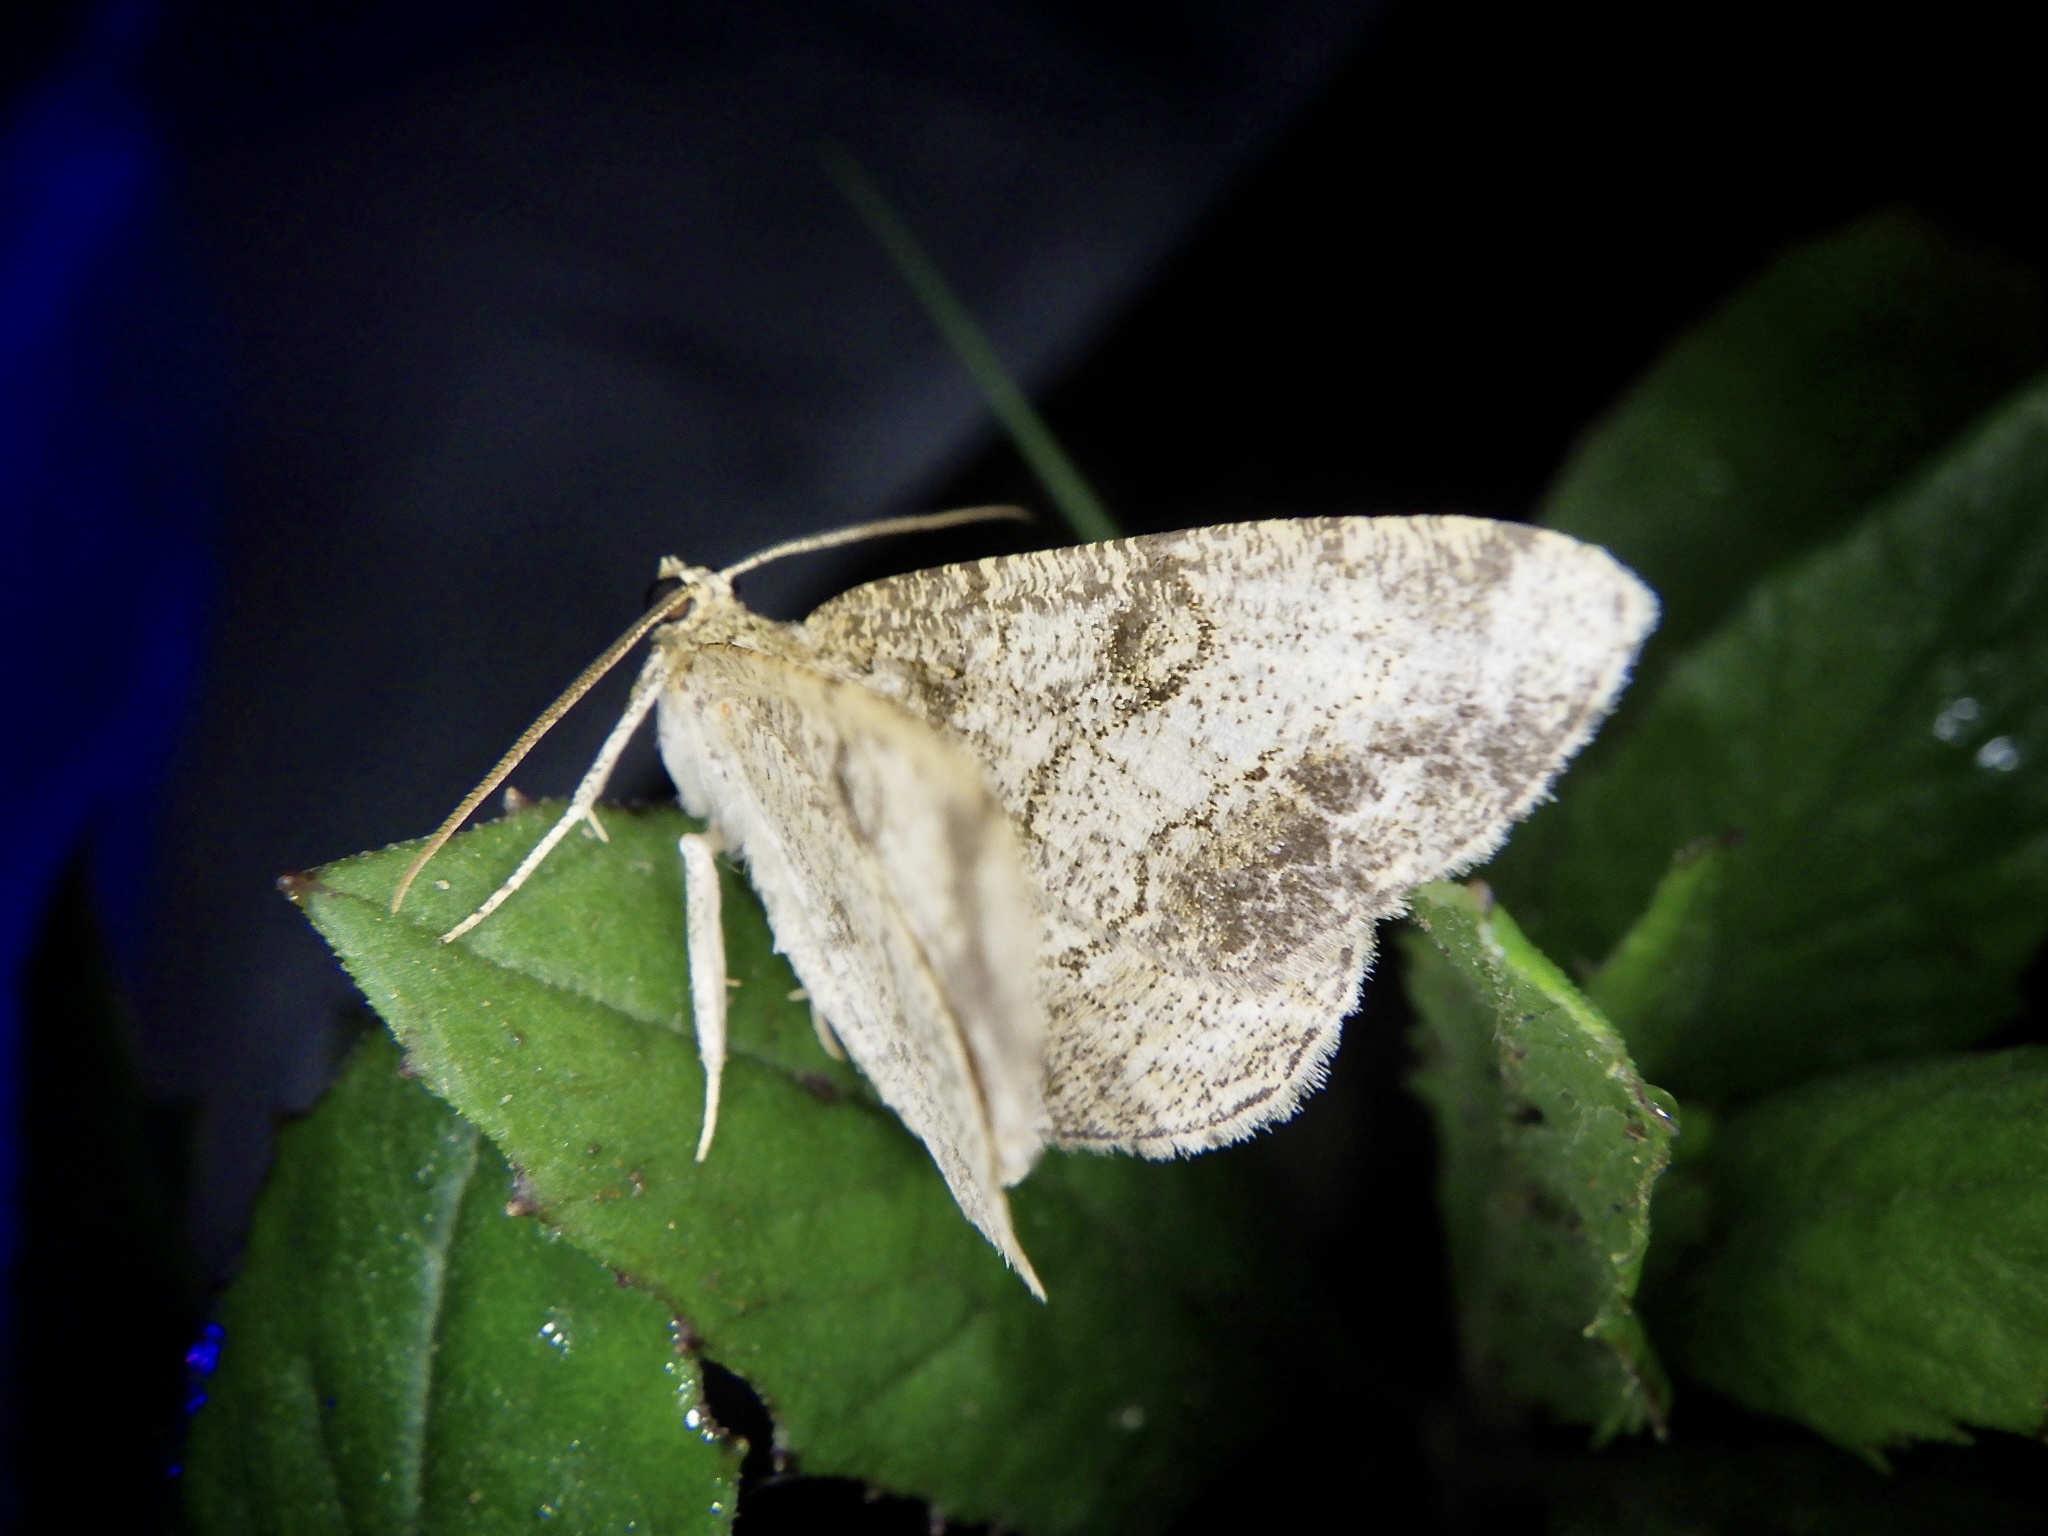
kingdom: Animalia
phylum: Arthropoda
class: Insecta
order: Lepidoptera
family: Geometridae
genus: Phanerothyris
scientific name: Phanerothyris sinearia
